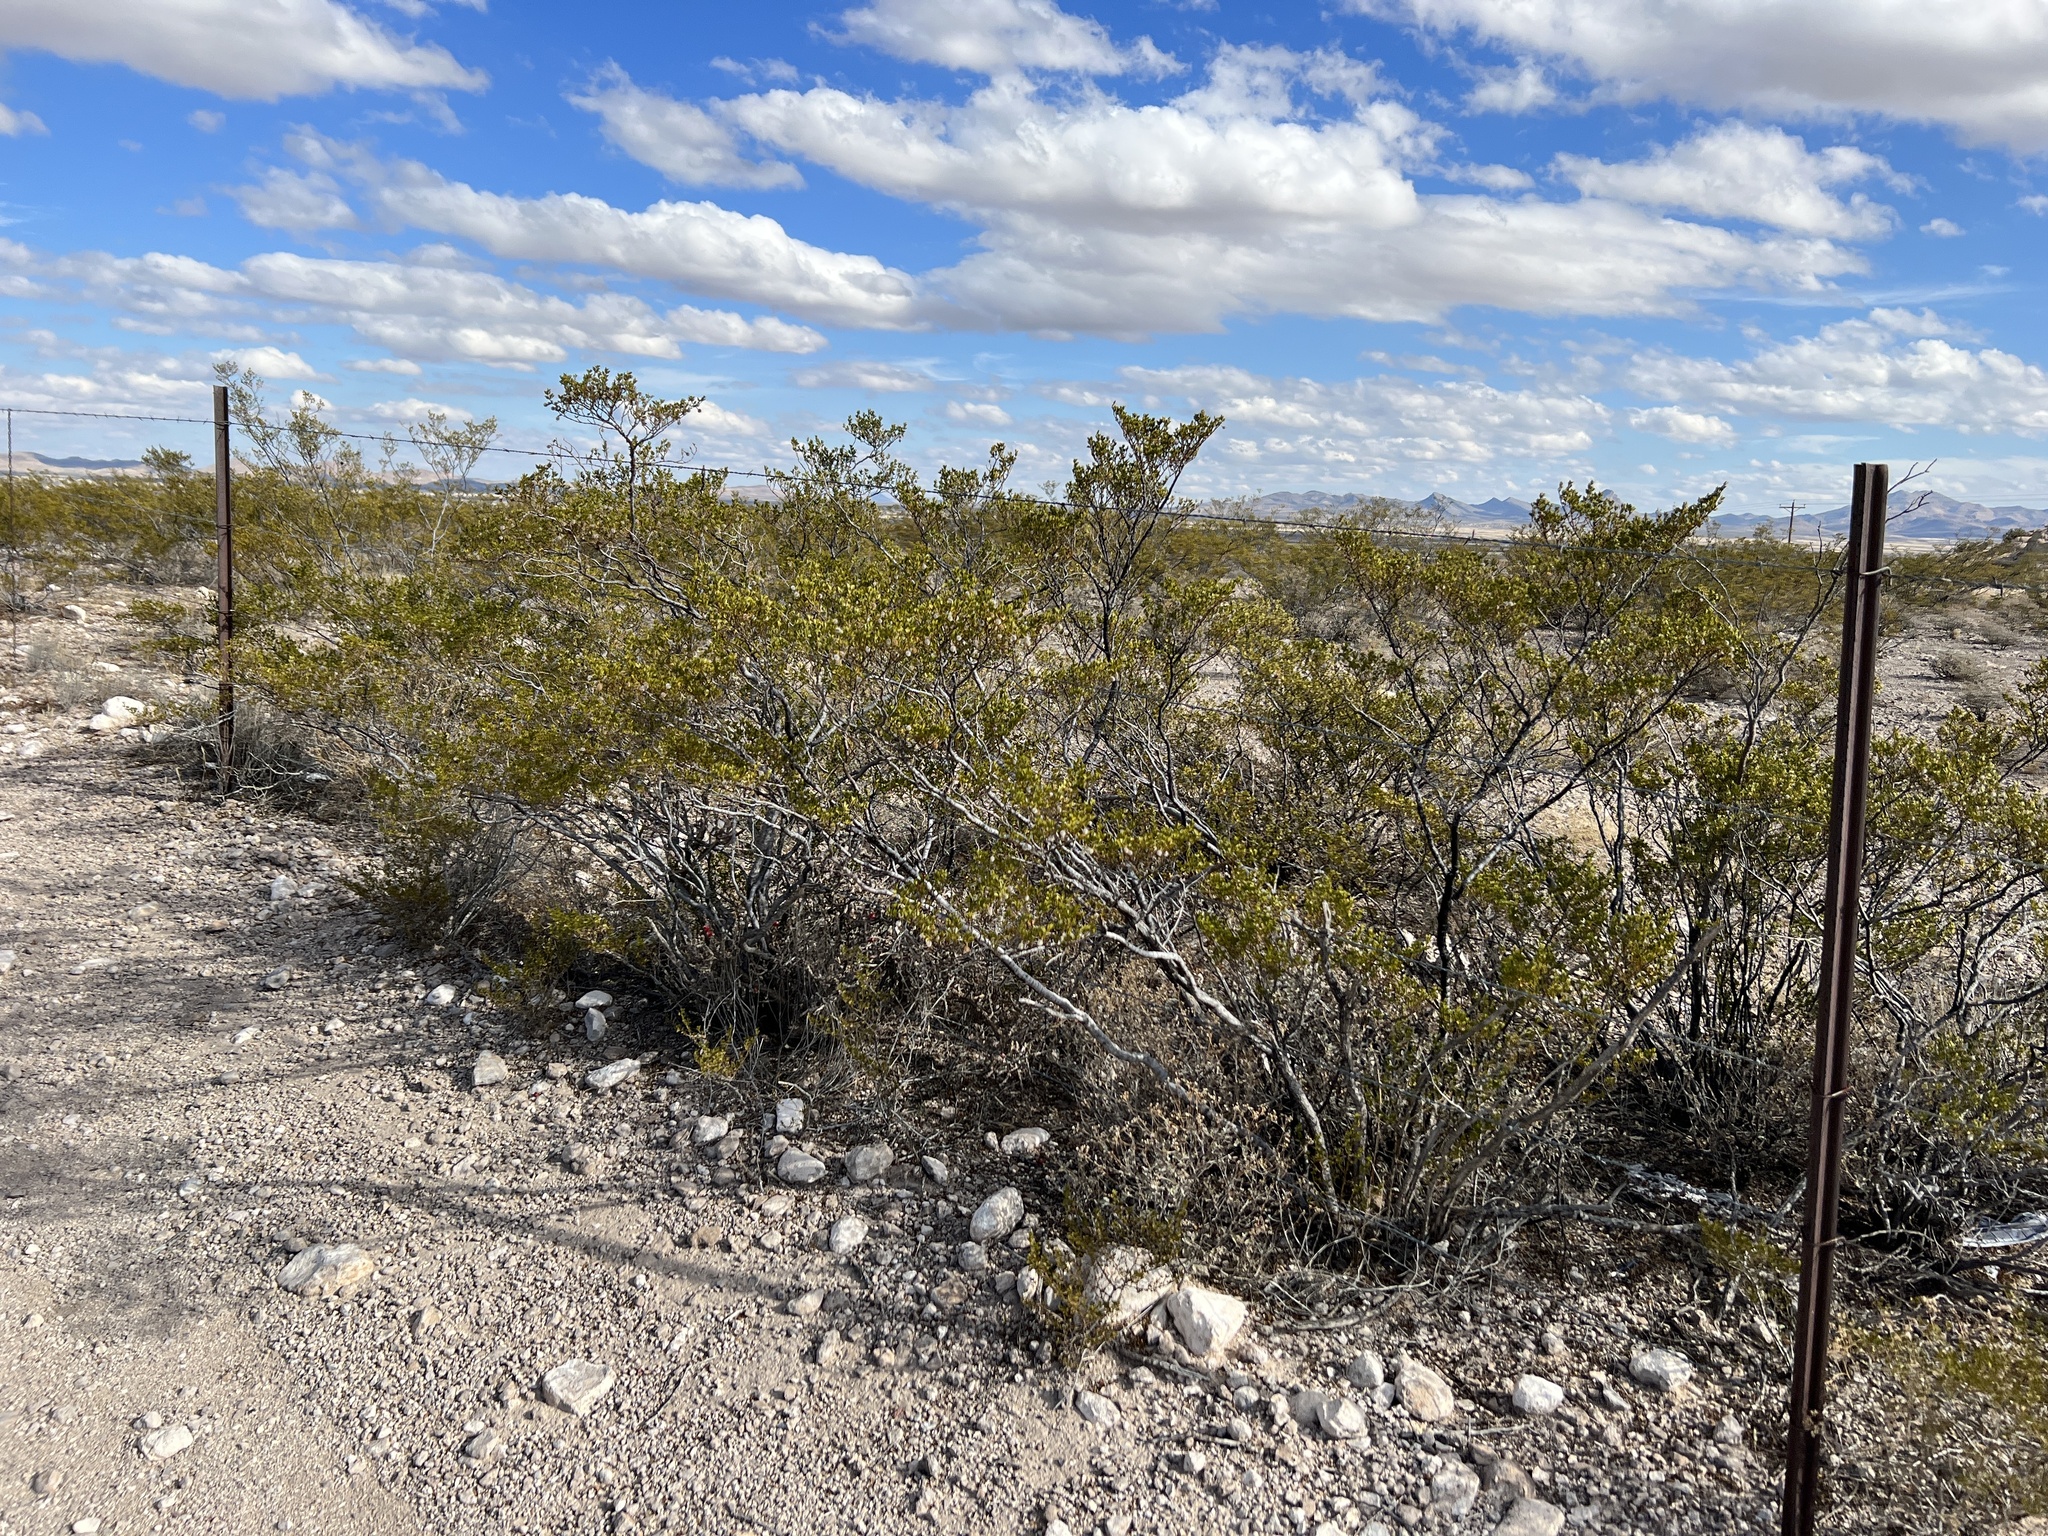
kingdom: Plantae
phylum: Tracheophyta
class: Magnoliopsida
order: Zygophyllales
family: Zygophyllaceae
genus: Larrea
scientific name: Larrea tridentata
